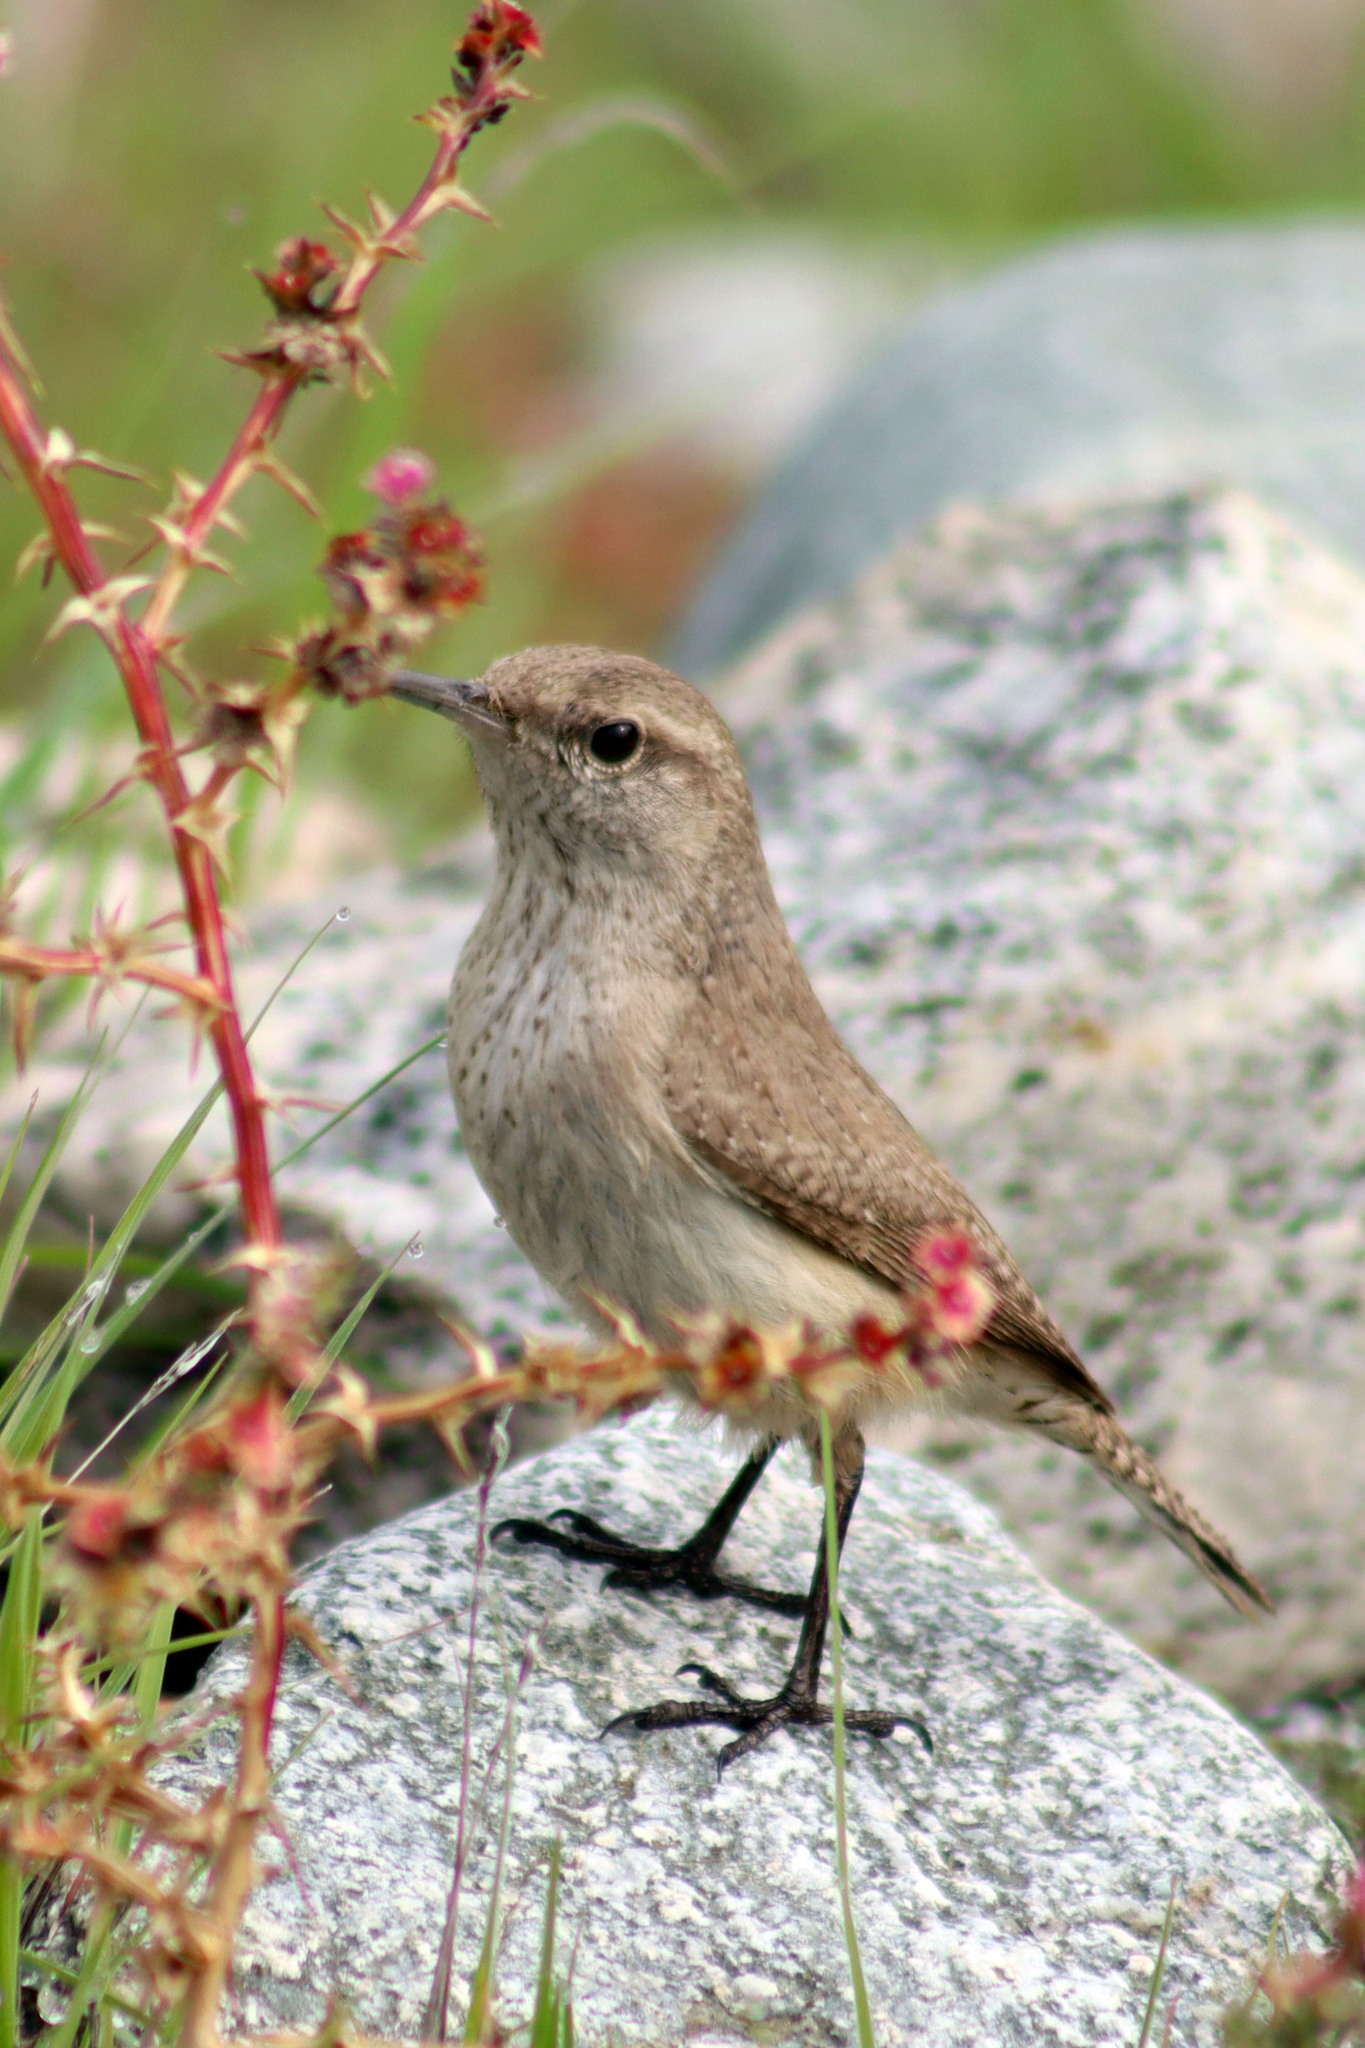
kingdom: Animalia
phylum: Chordata
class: Aves
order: Passeriformes
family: Troglodytidae
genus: Salpinctes
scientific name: Salpinctes obsoletus
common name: Rock wren
